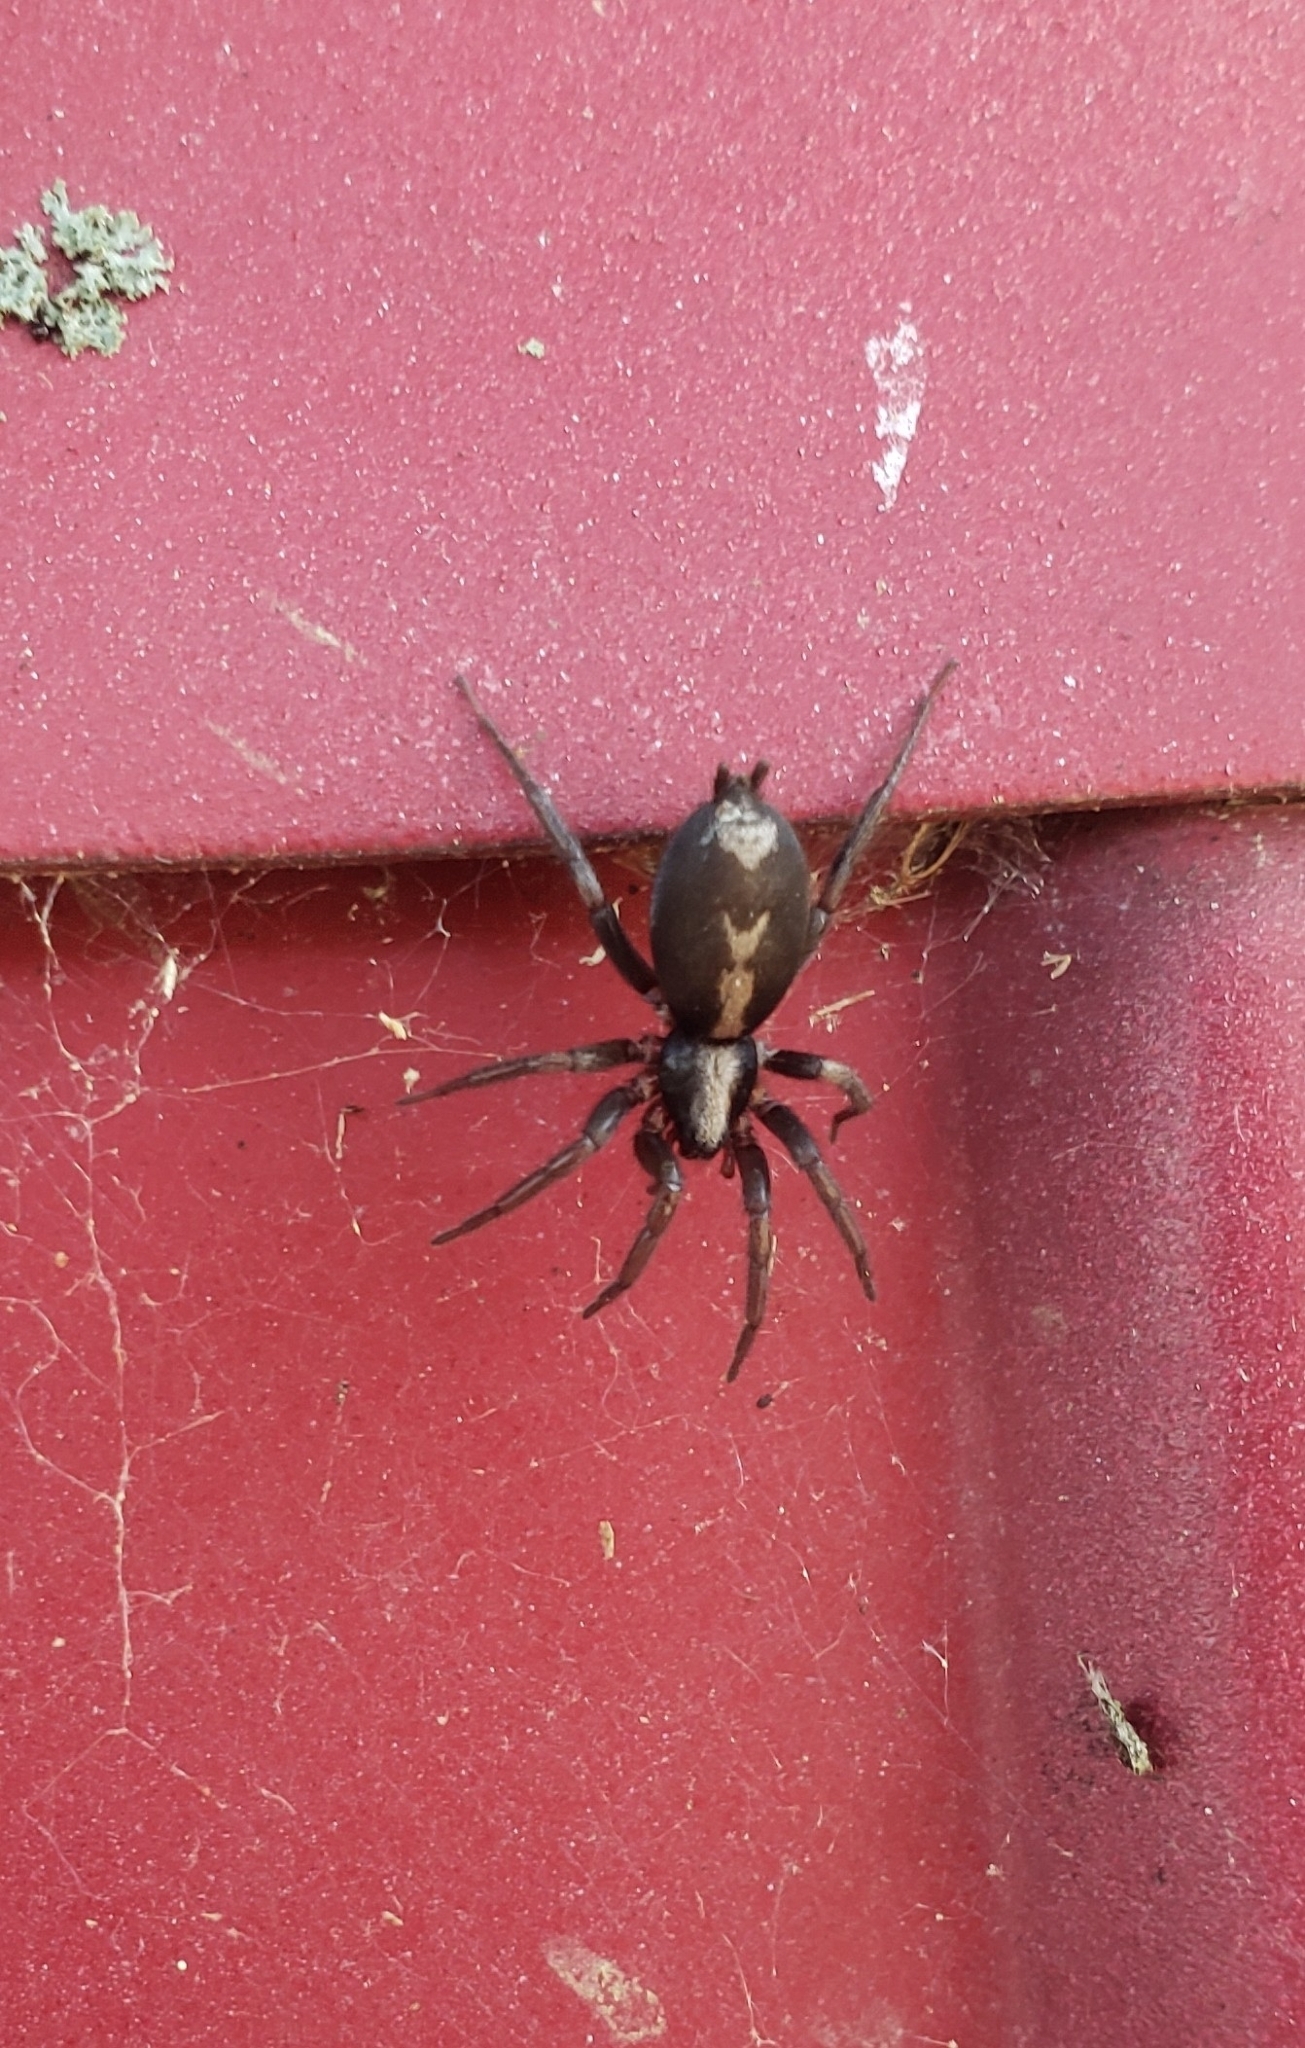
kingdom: Animalia
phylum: Arthropoda
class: Arachnida
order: Araneae
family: Gnaphosidae
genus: Herpyllus
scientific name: Herpyllus ecclesiasticus
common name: Eastern parson spider
